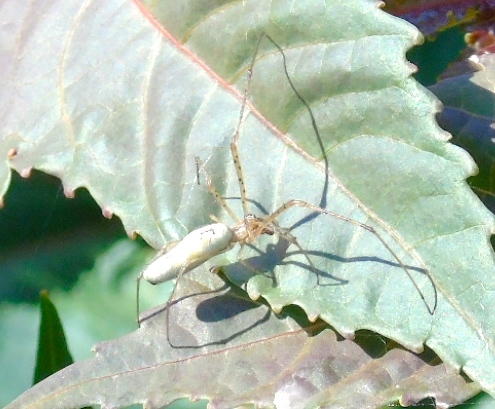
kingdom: Animalia
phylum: Arthropoda
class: Arachnida
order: Araneae
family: Tetragnathidae
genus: Tetragnatha
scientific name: Tetragnatha
